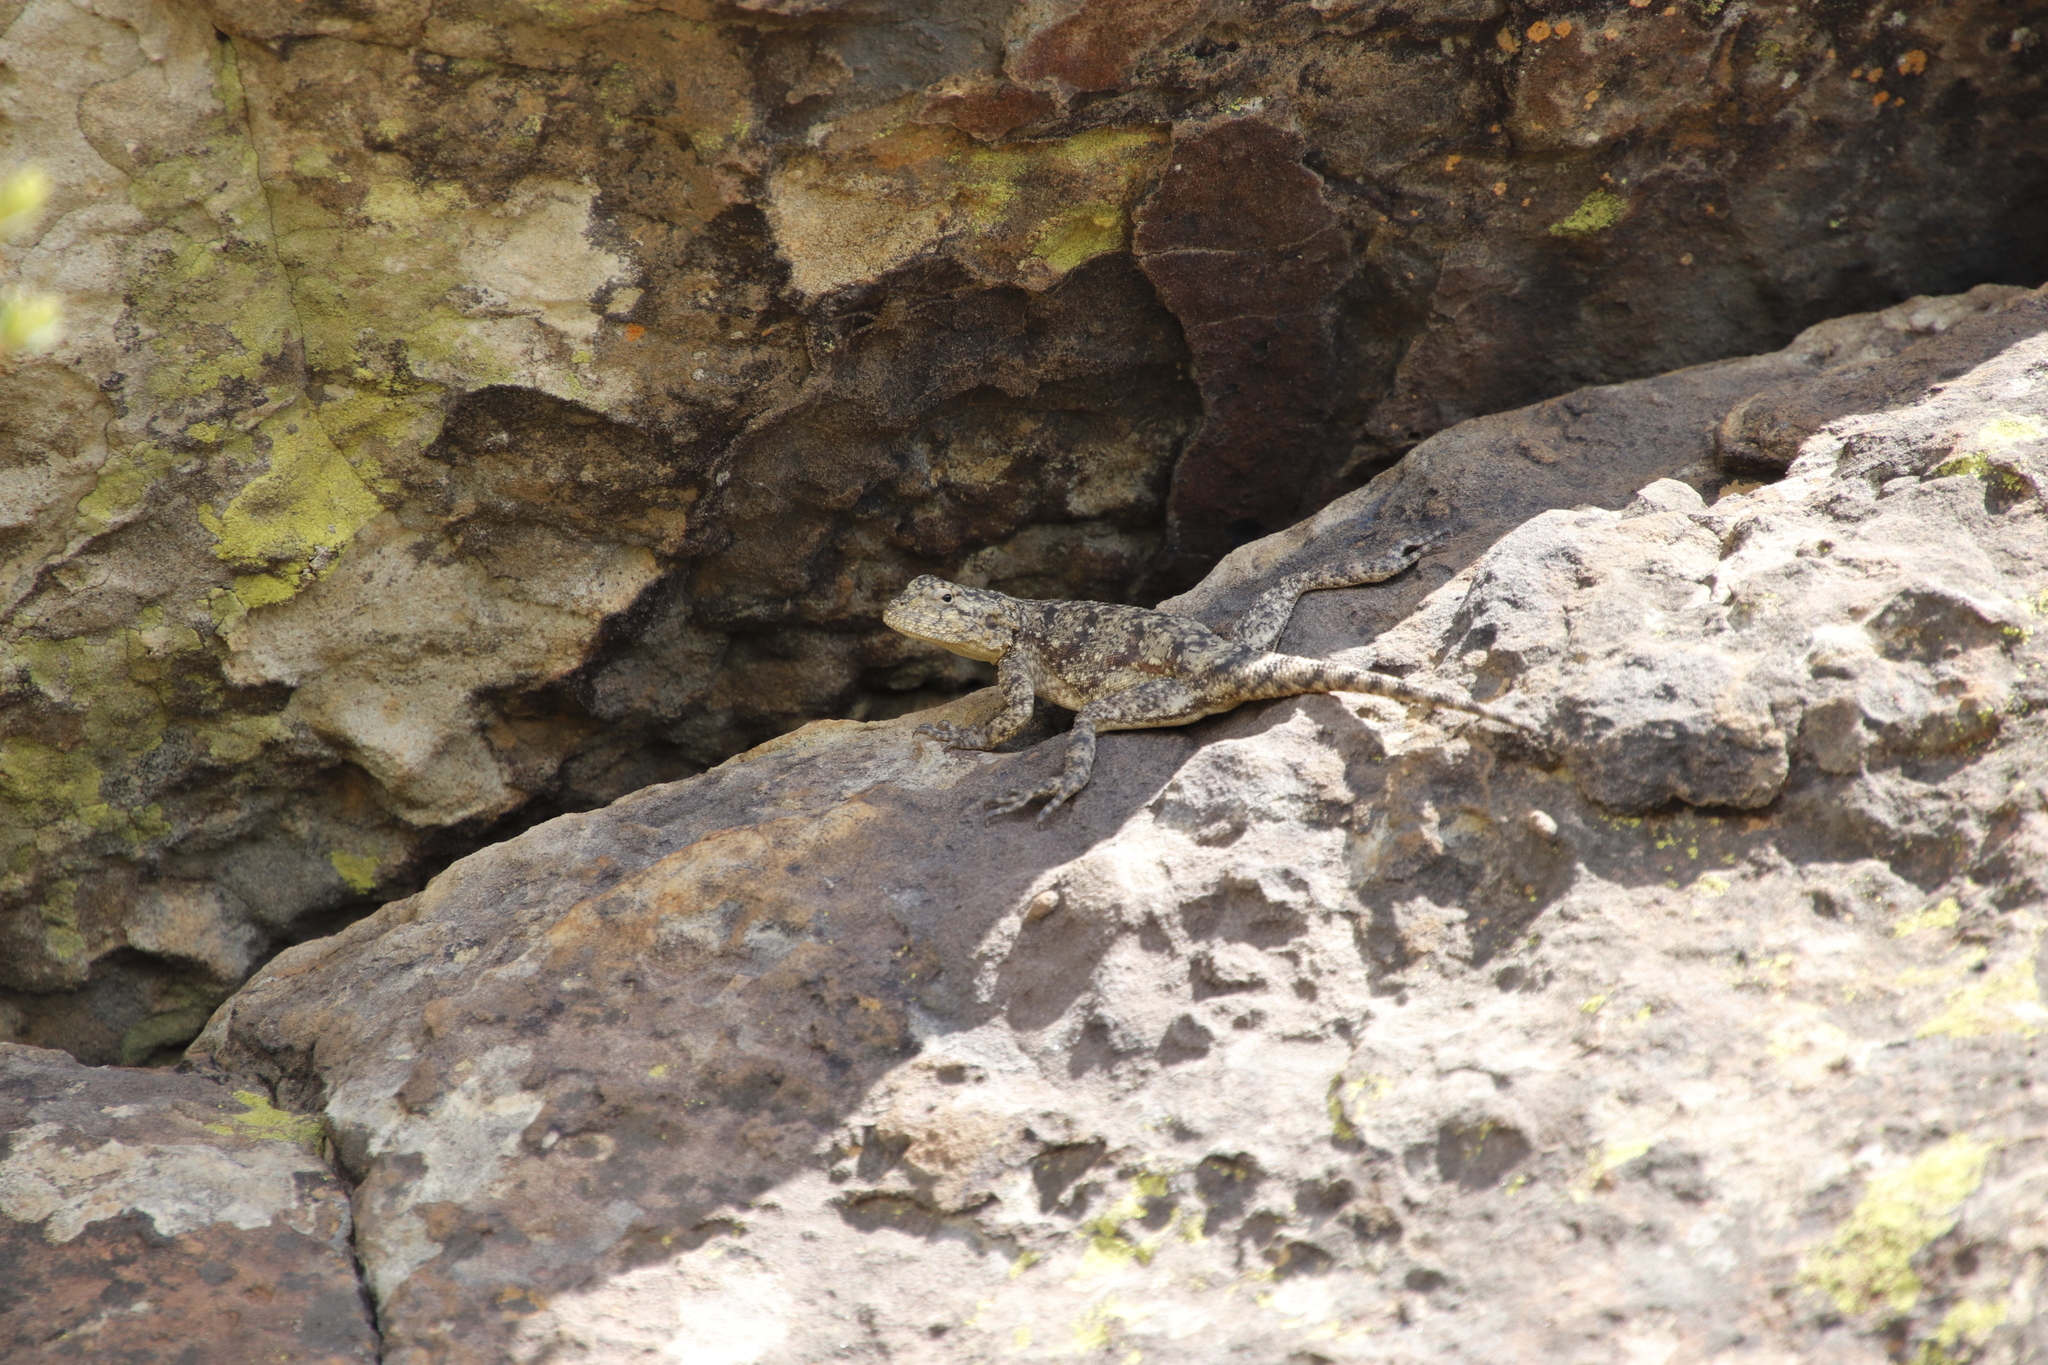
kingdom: Animalia
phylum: Chordata
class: Squamata
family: Agamidae
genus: Agama
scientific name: Agama atra
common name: Southern african rock agama
